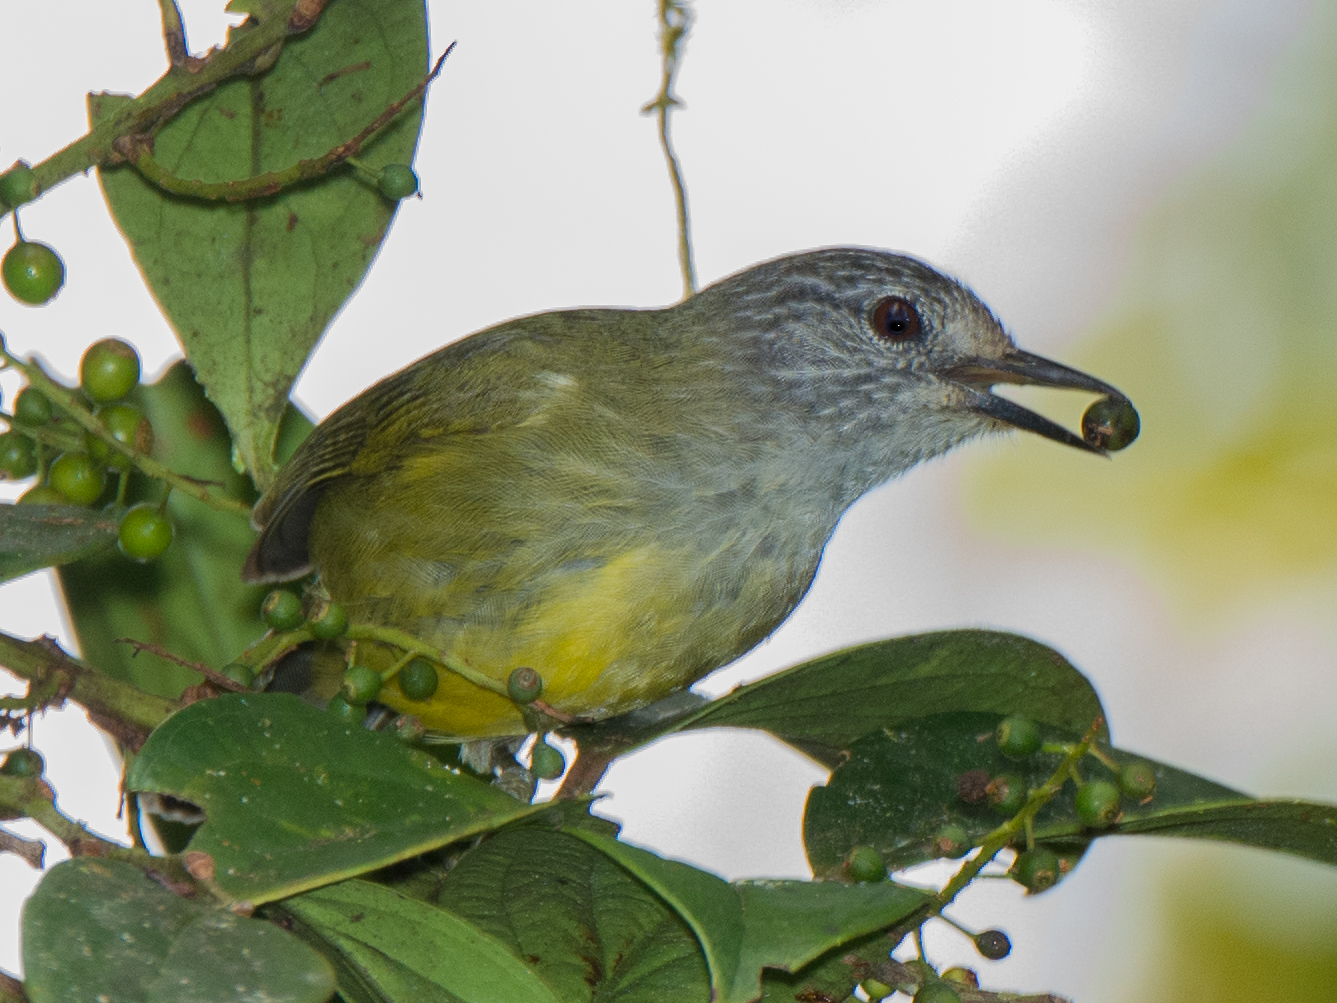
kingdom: Animalia
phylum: Chordata
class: Aves
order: Passeriformes
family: Zosteropidae
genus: Lophozosterops
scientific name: Lophozosterops squamiceps
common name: Streak-headed white-eye
